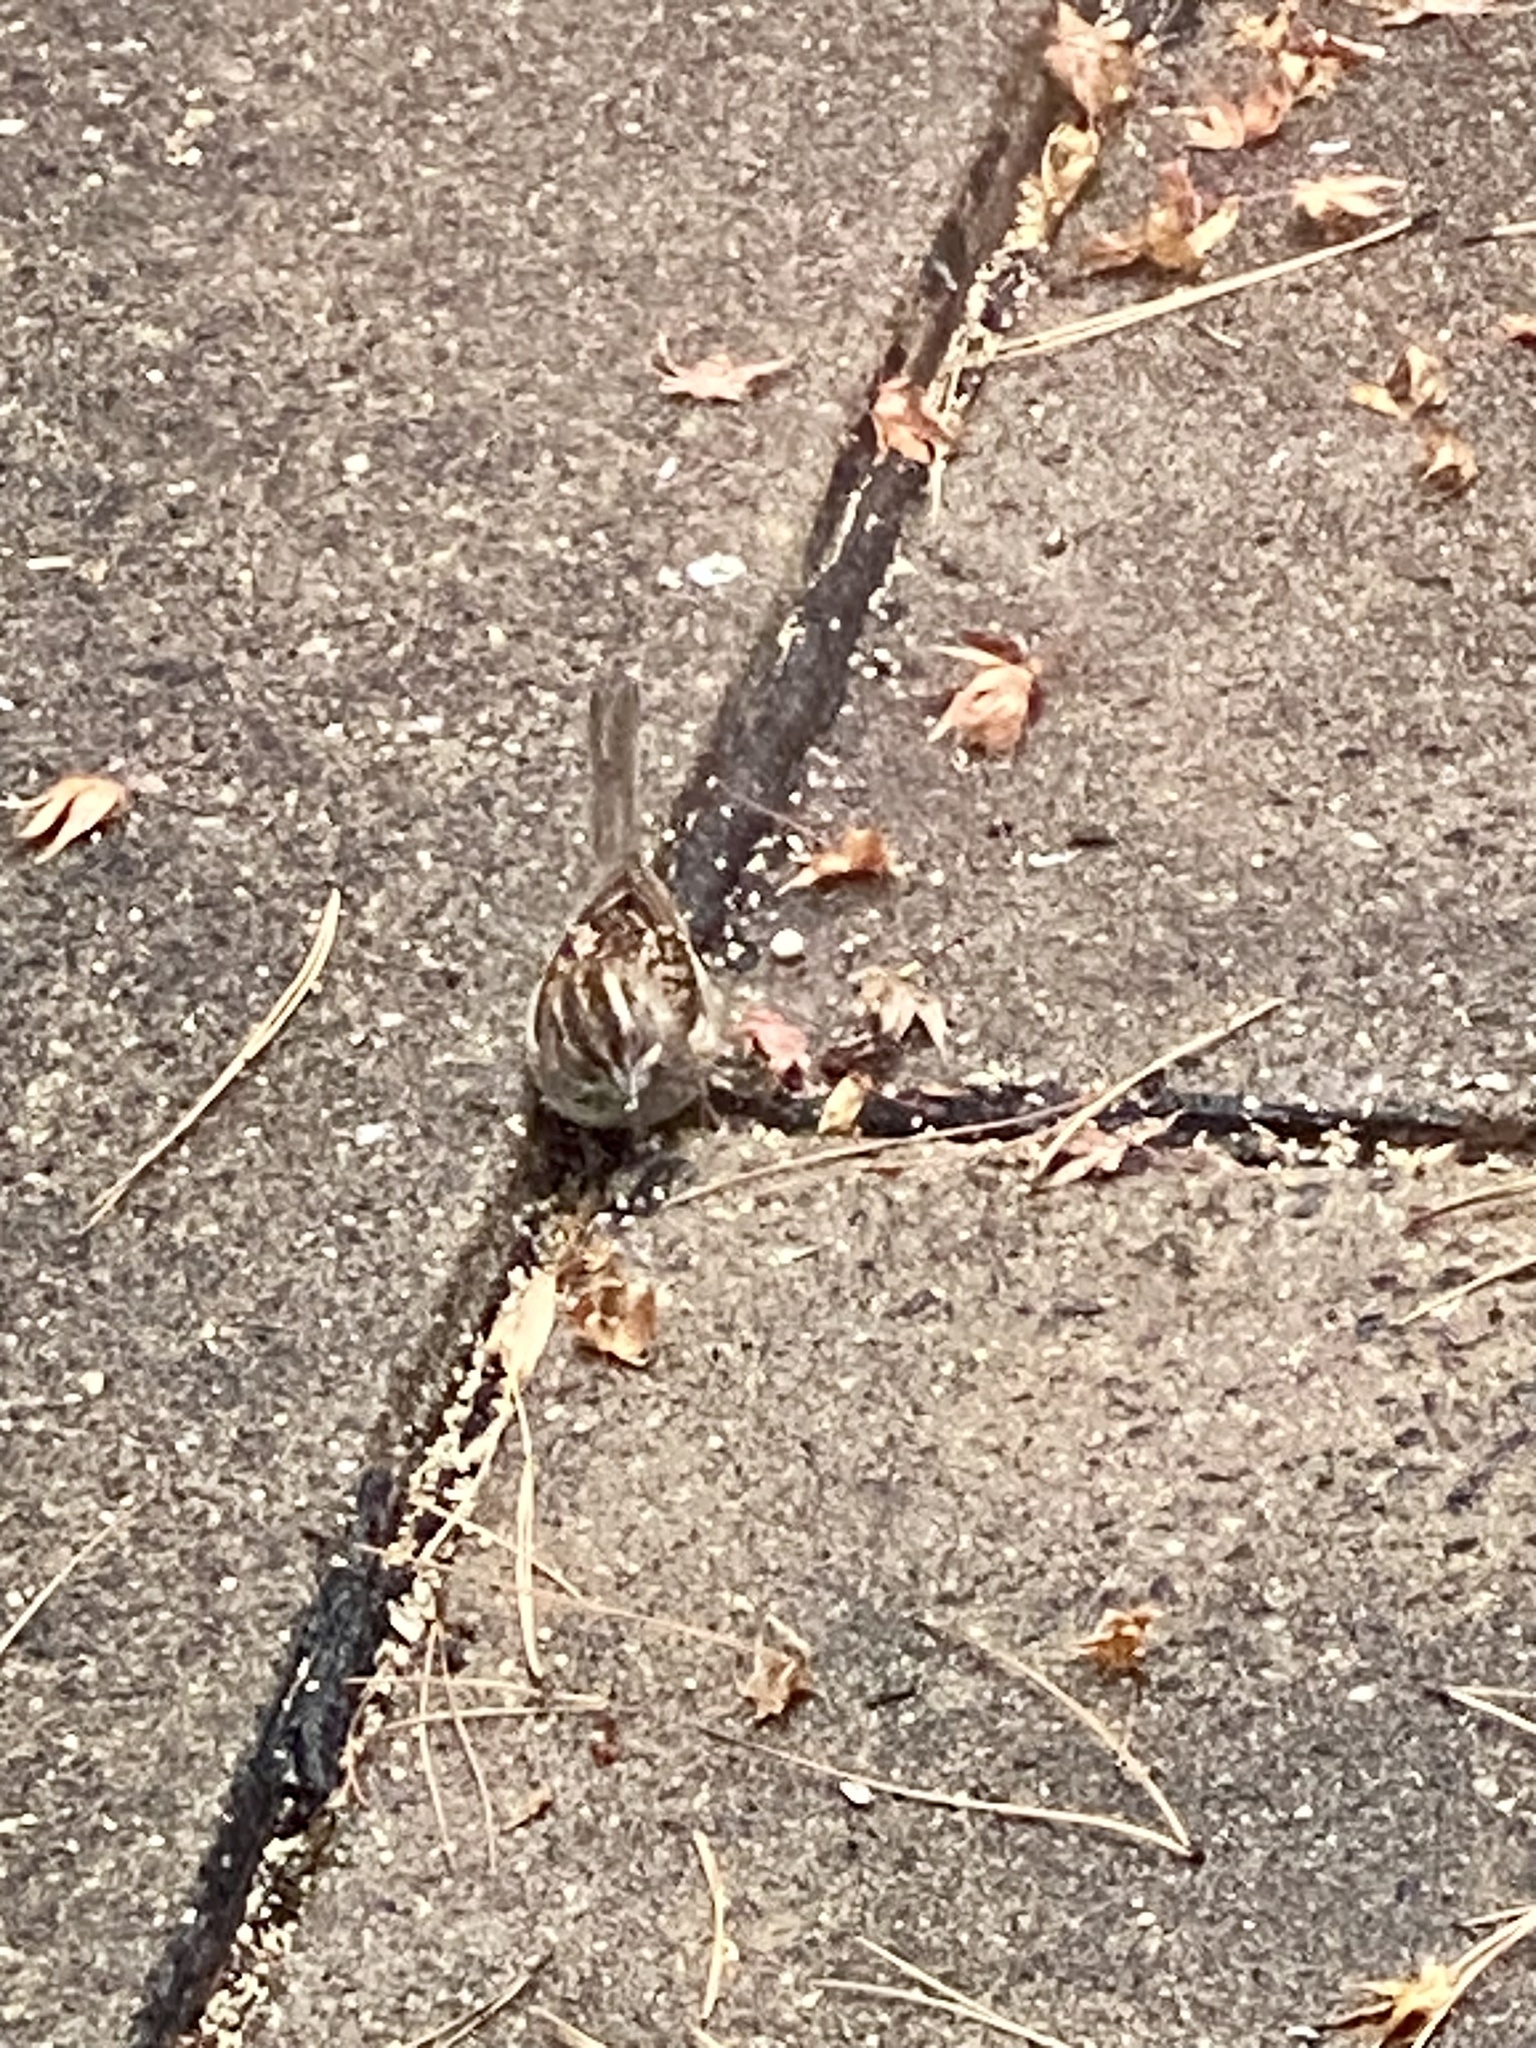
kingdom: Animalia
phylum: Chordata
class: Aves
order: Passeriformes
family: Passerellidae
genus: Zonotrichia
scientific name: Zonotrichia albicollis
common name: White-throated sparrow
